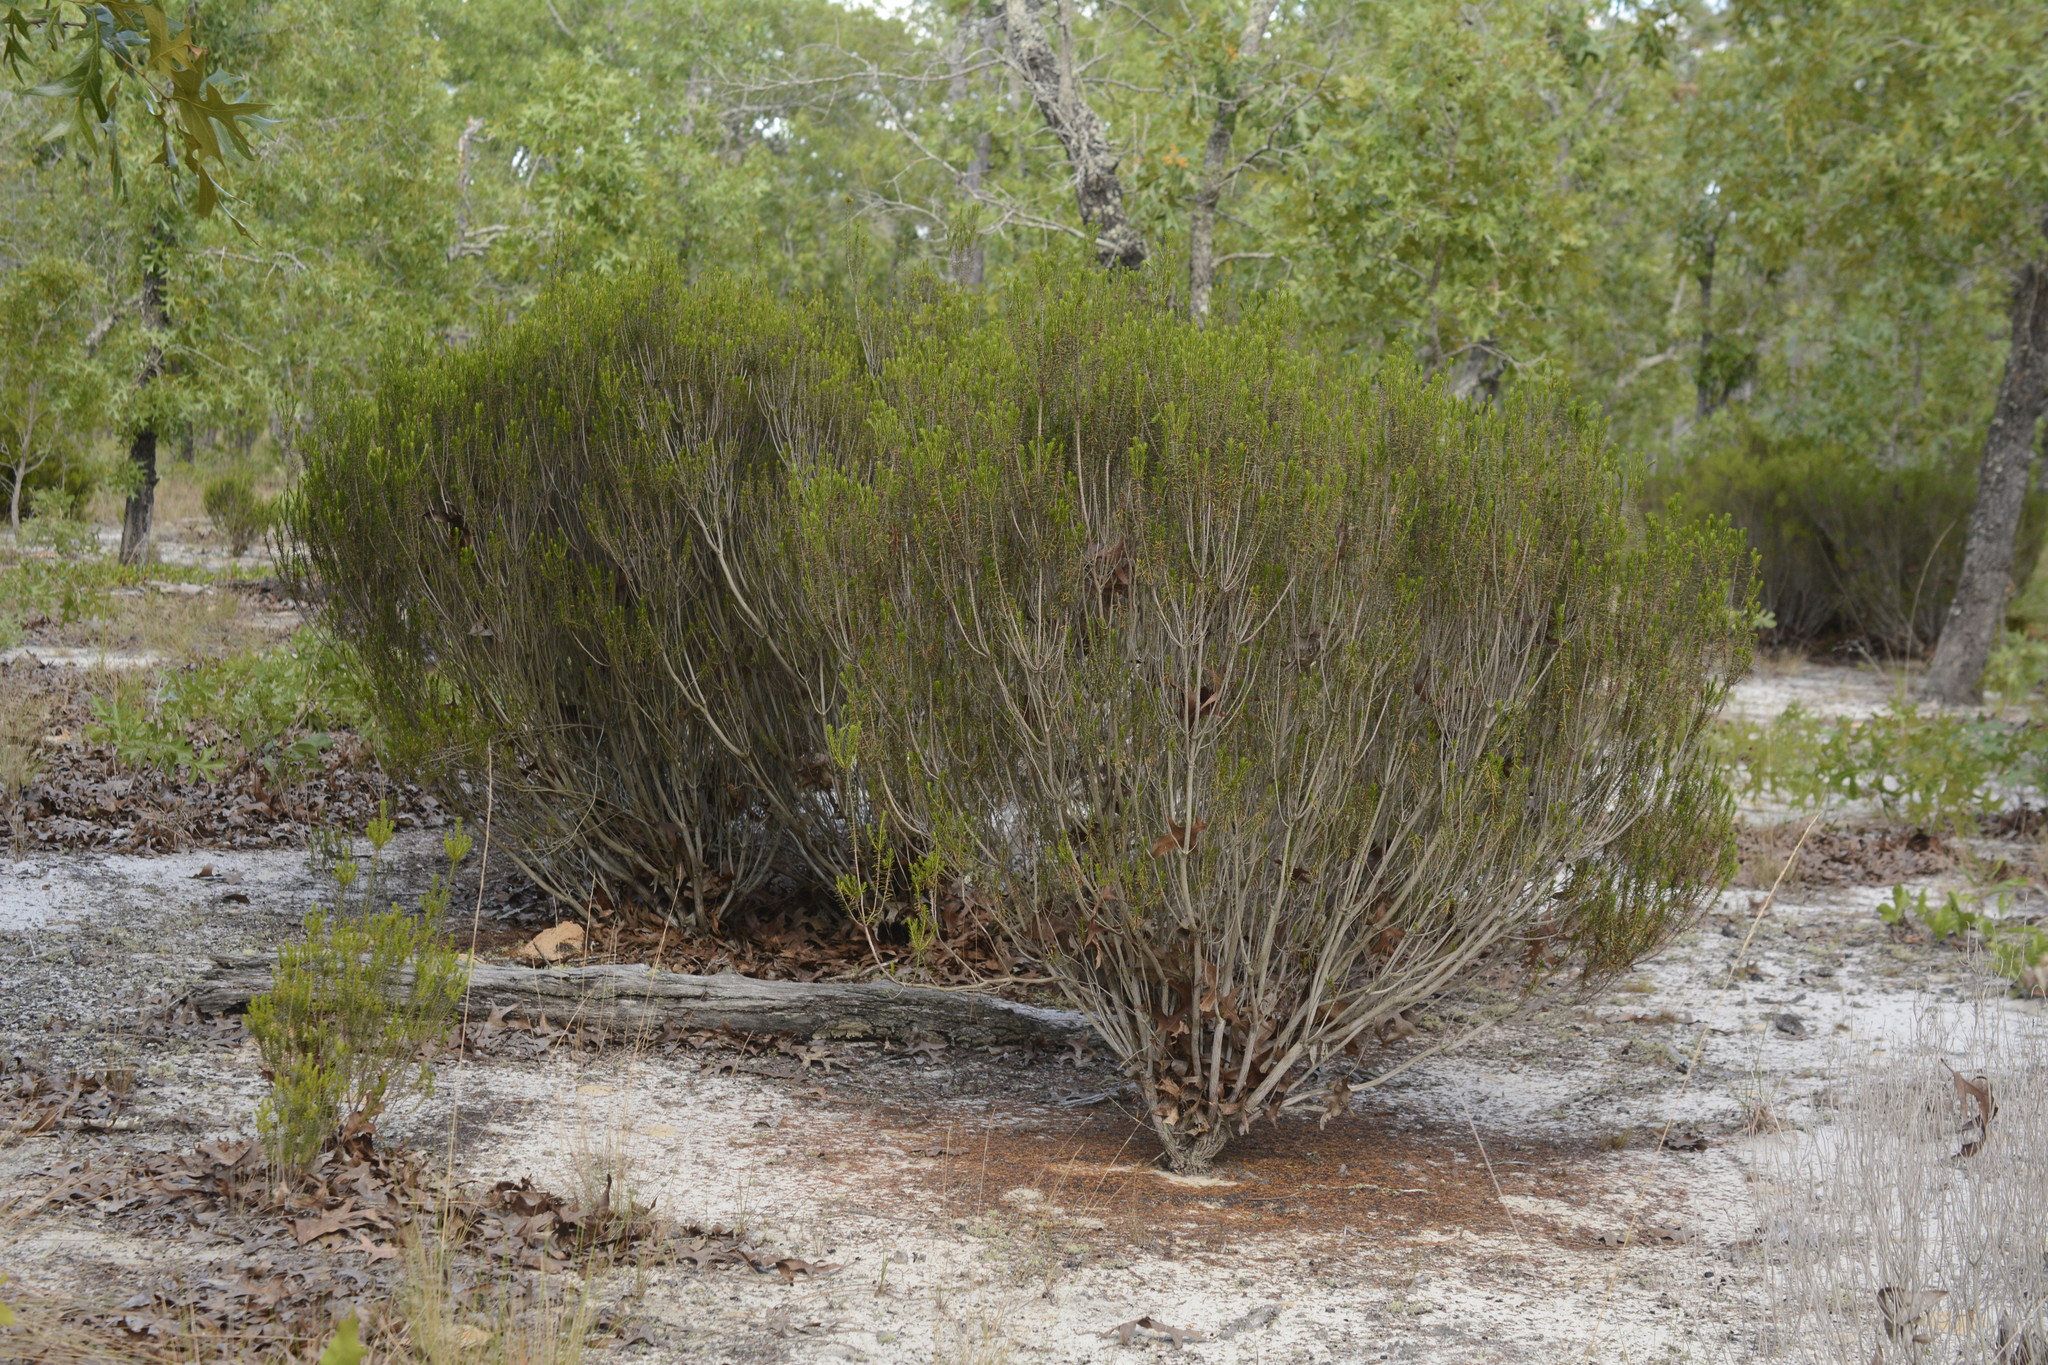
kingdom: Plantae
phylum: Tracheophyta
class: Magnoliopsida
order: Ericales
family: Ericaceae
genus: Ceratiola
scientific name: Ceratiola ericoides
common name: Sandhill-rosemary
